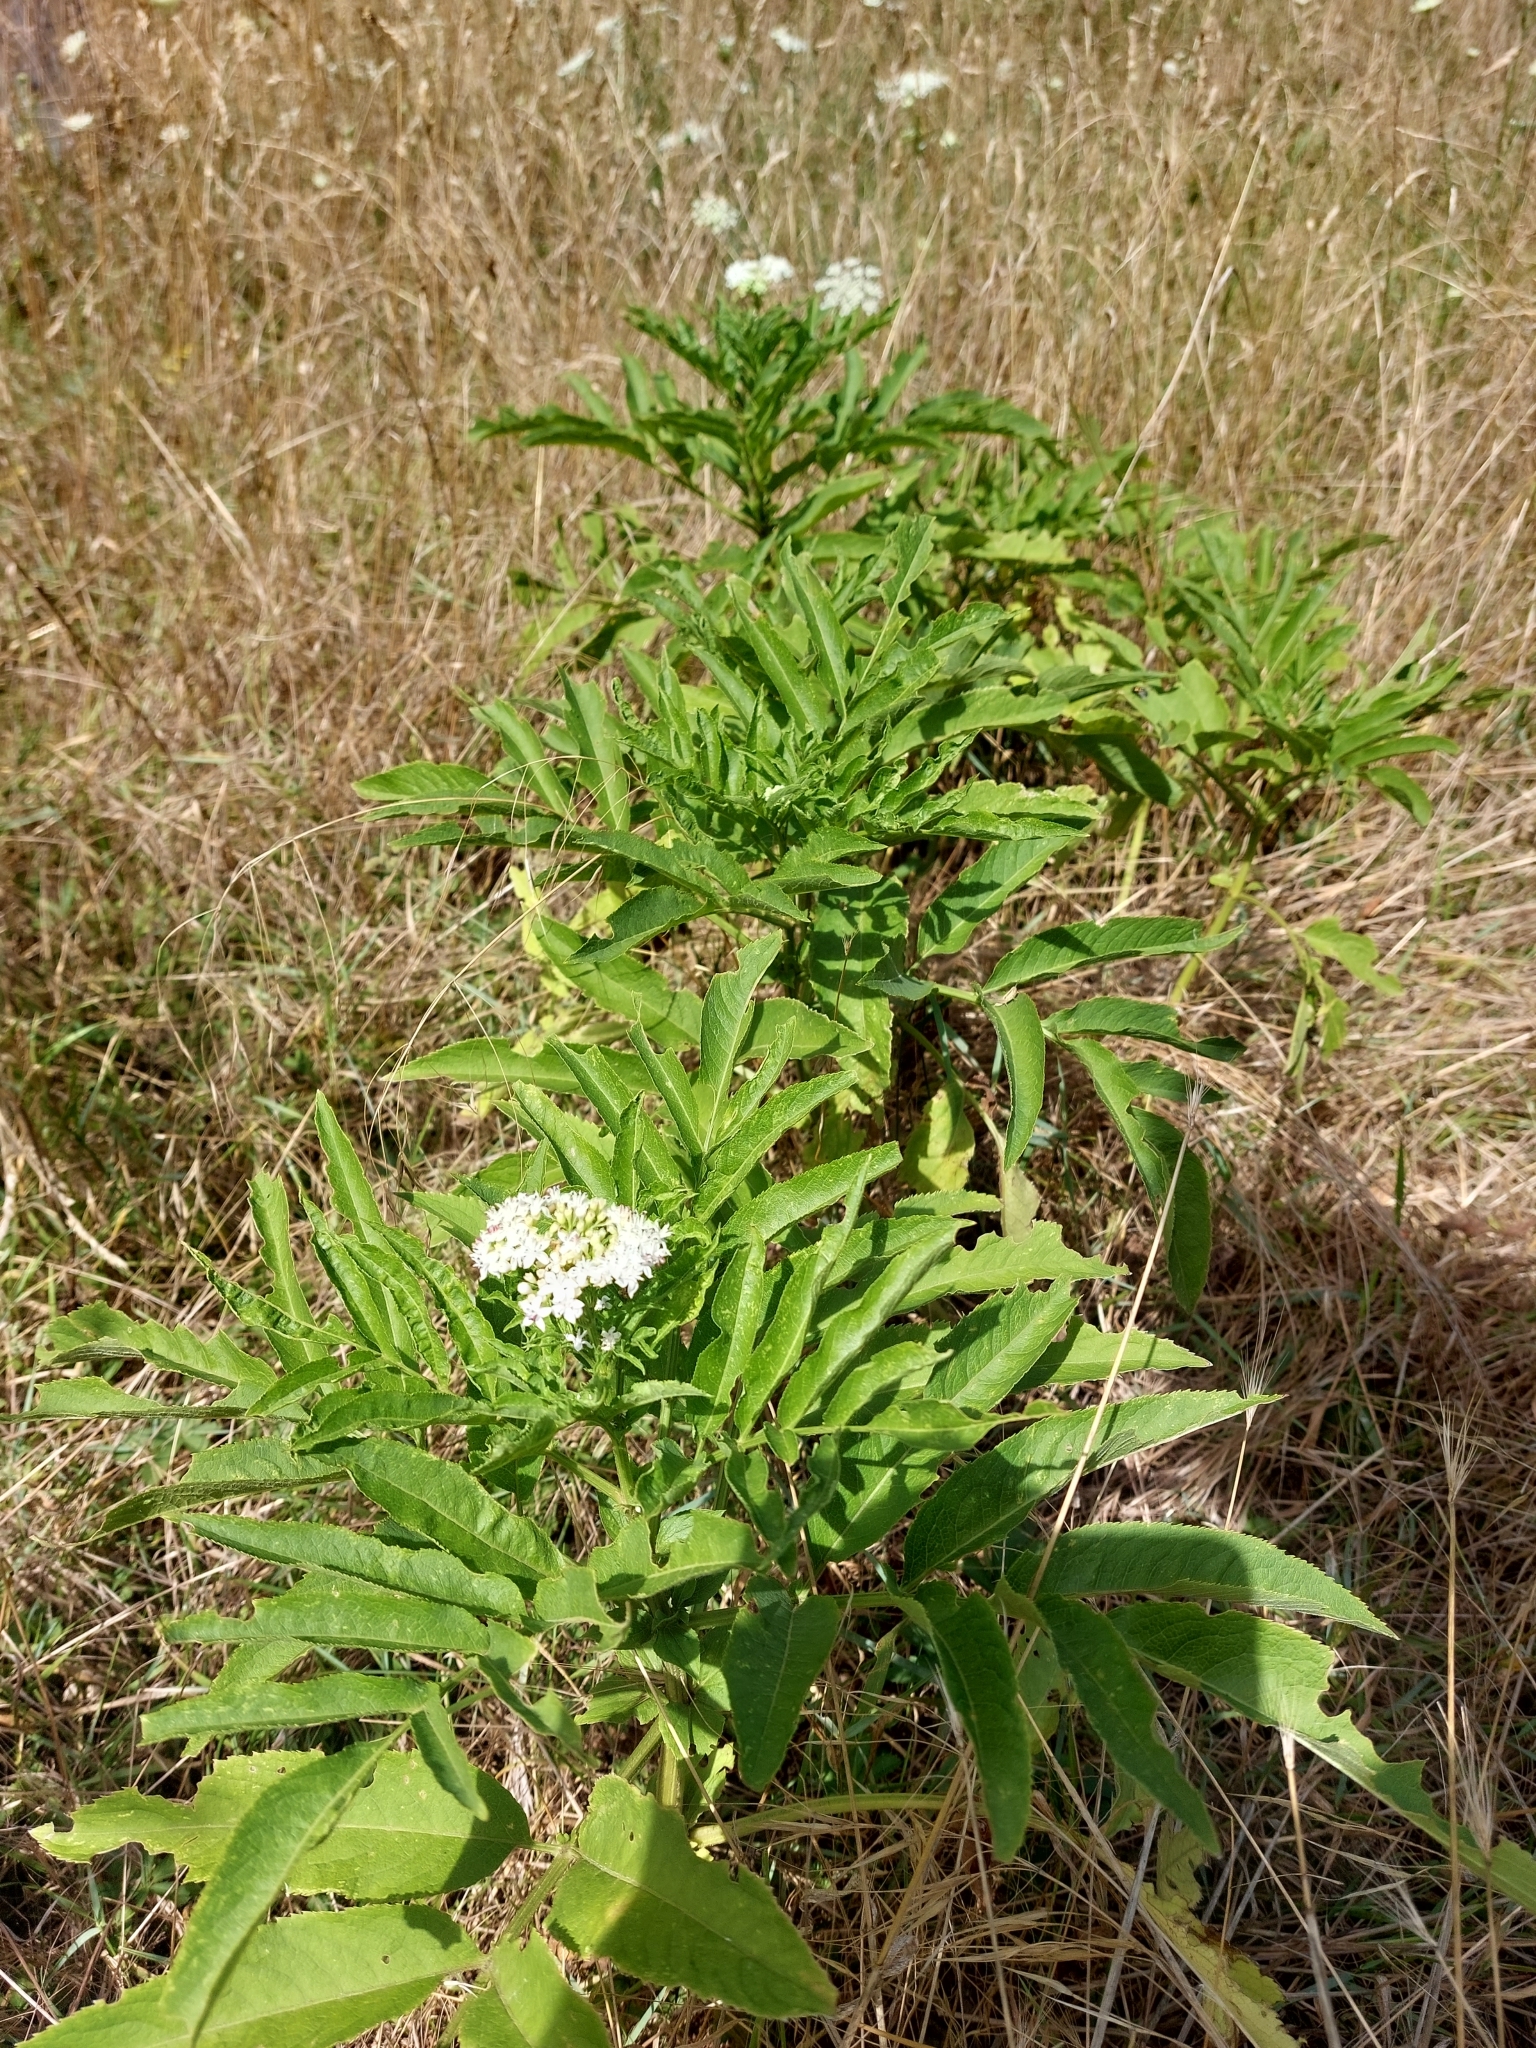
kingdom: Plantae
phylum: Tracheophyta
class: Magnoliopsida
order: Dipsacales
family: Viburnaceae
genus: Sambucus
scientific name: Sambucus ebulus
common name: Dwarf elder
